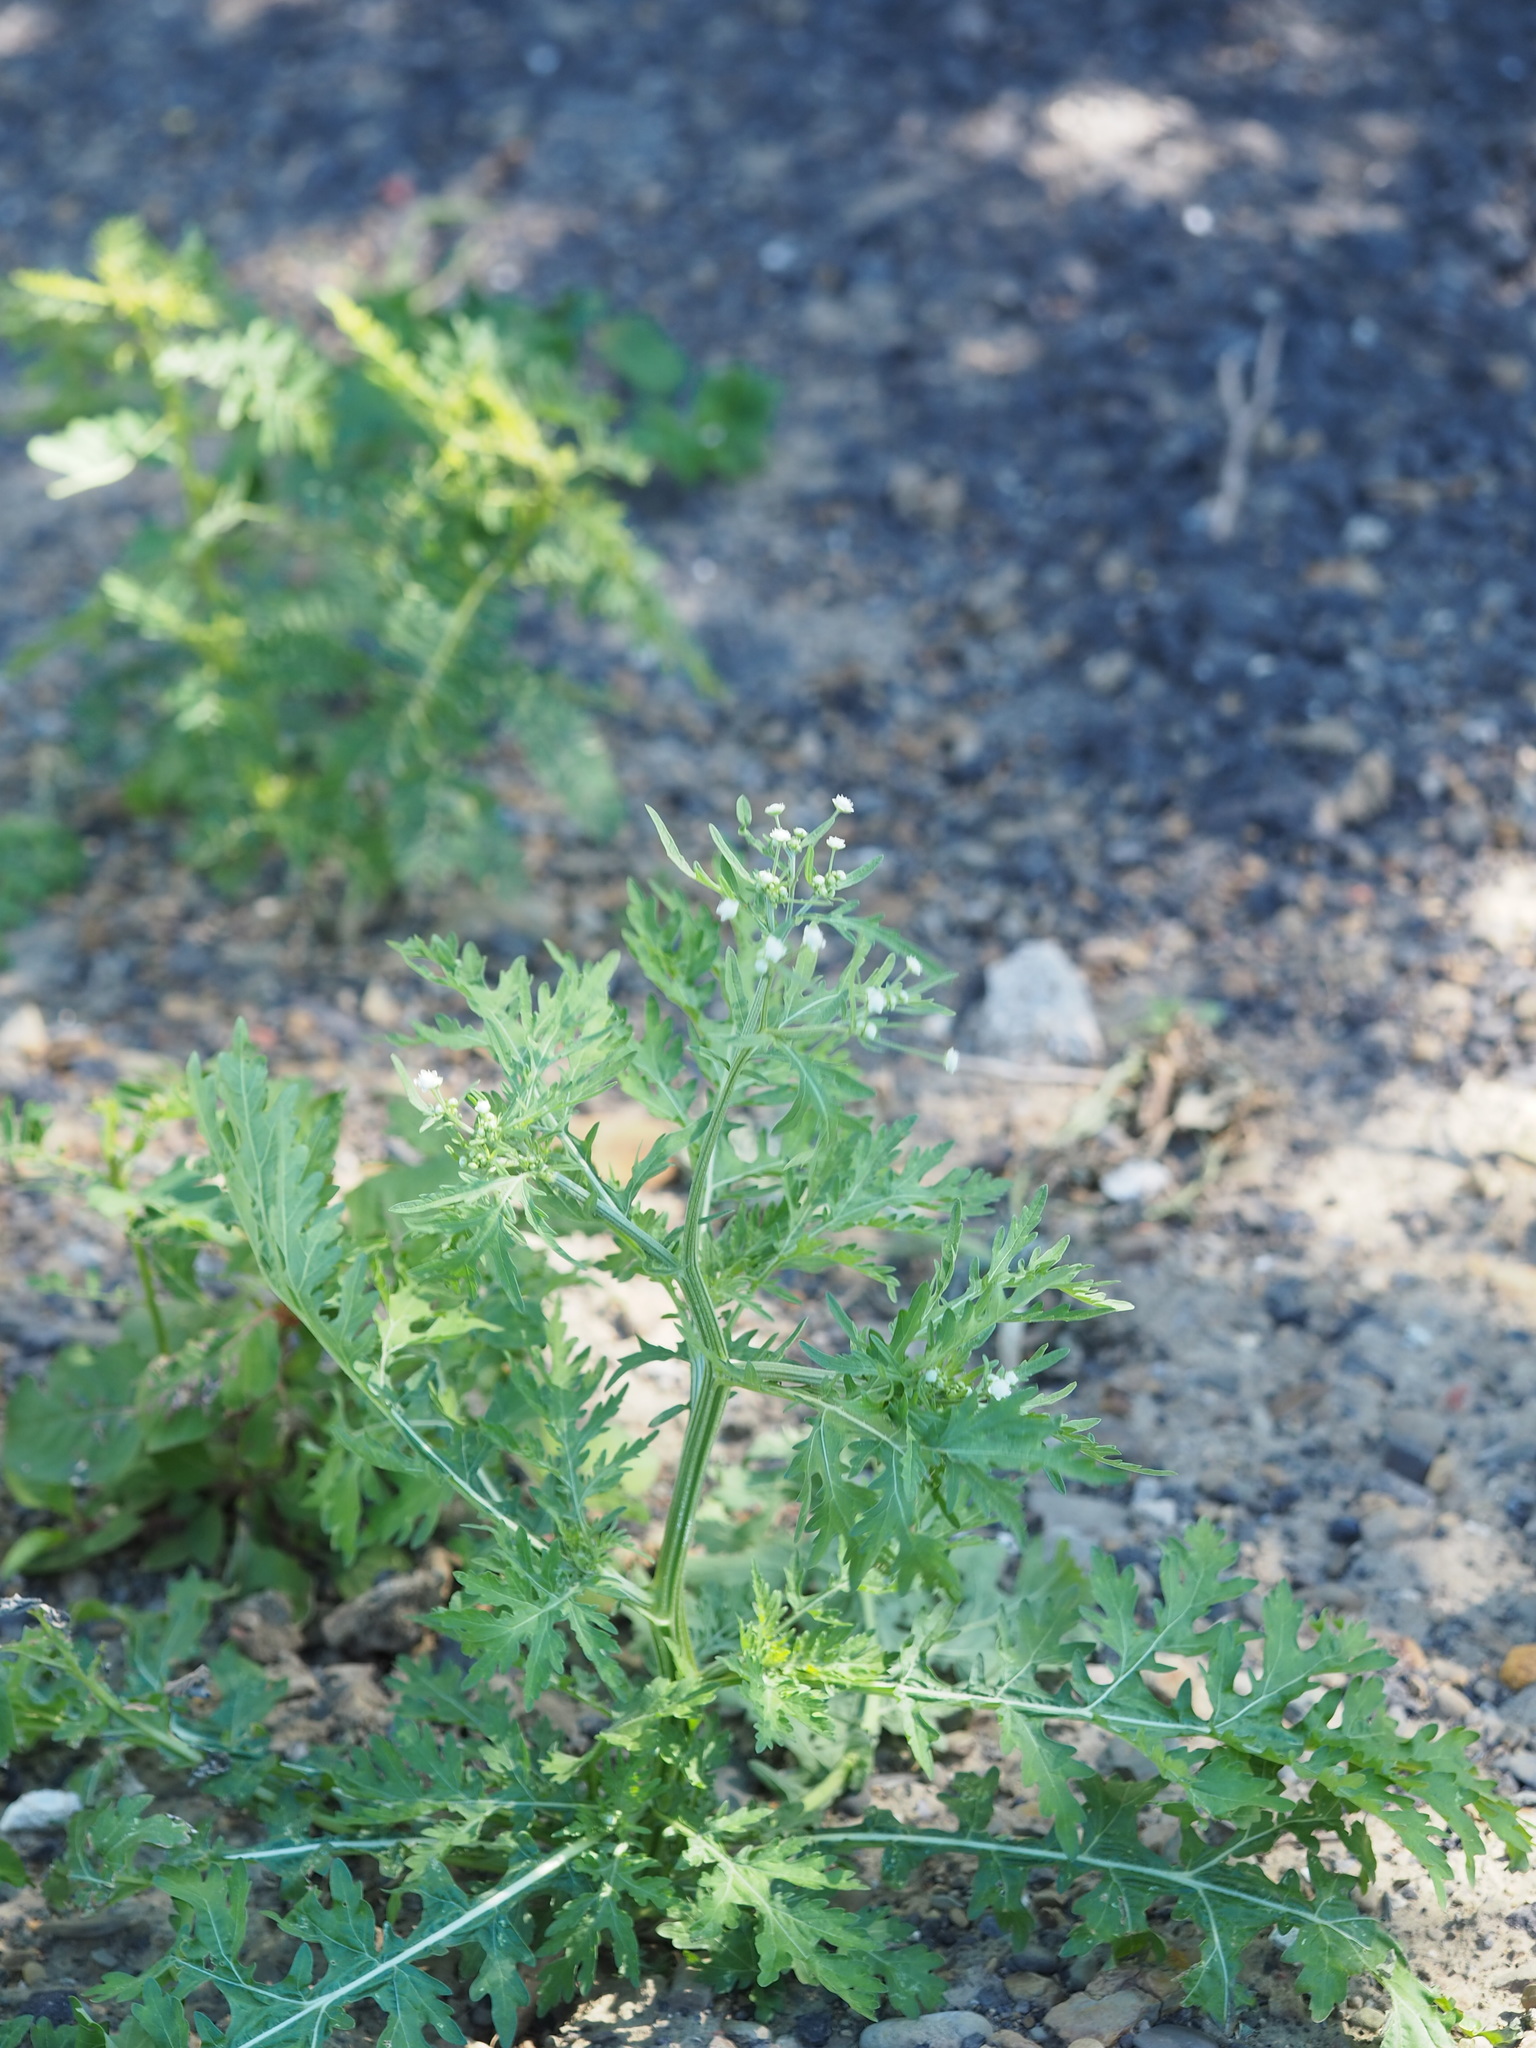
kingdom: Plantae
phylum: Tracheophyta
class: Magnoliopsida
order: Asterales
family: Asteraceae
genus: Parthenium
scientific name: Parthenium hysterophorus
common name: Santa maria feverfew
